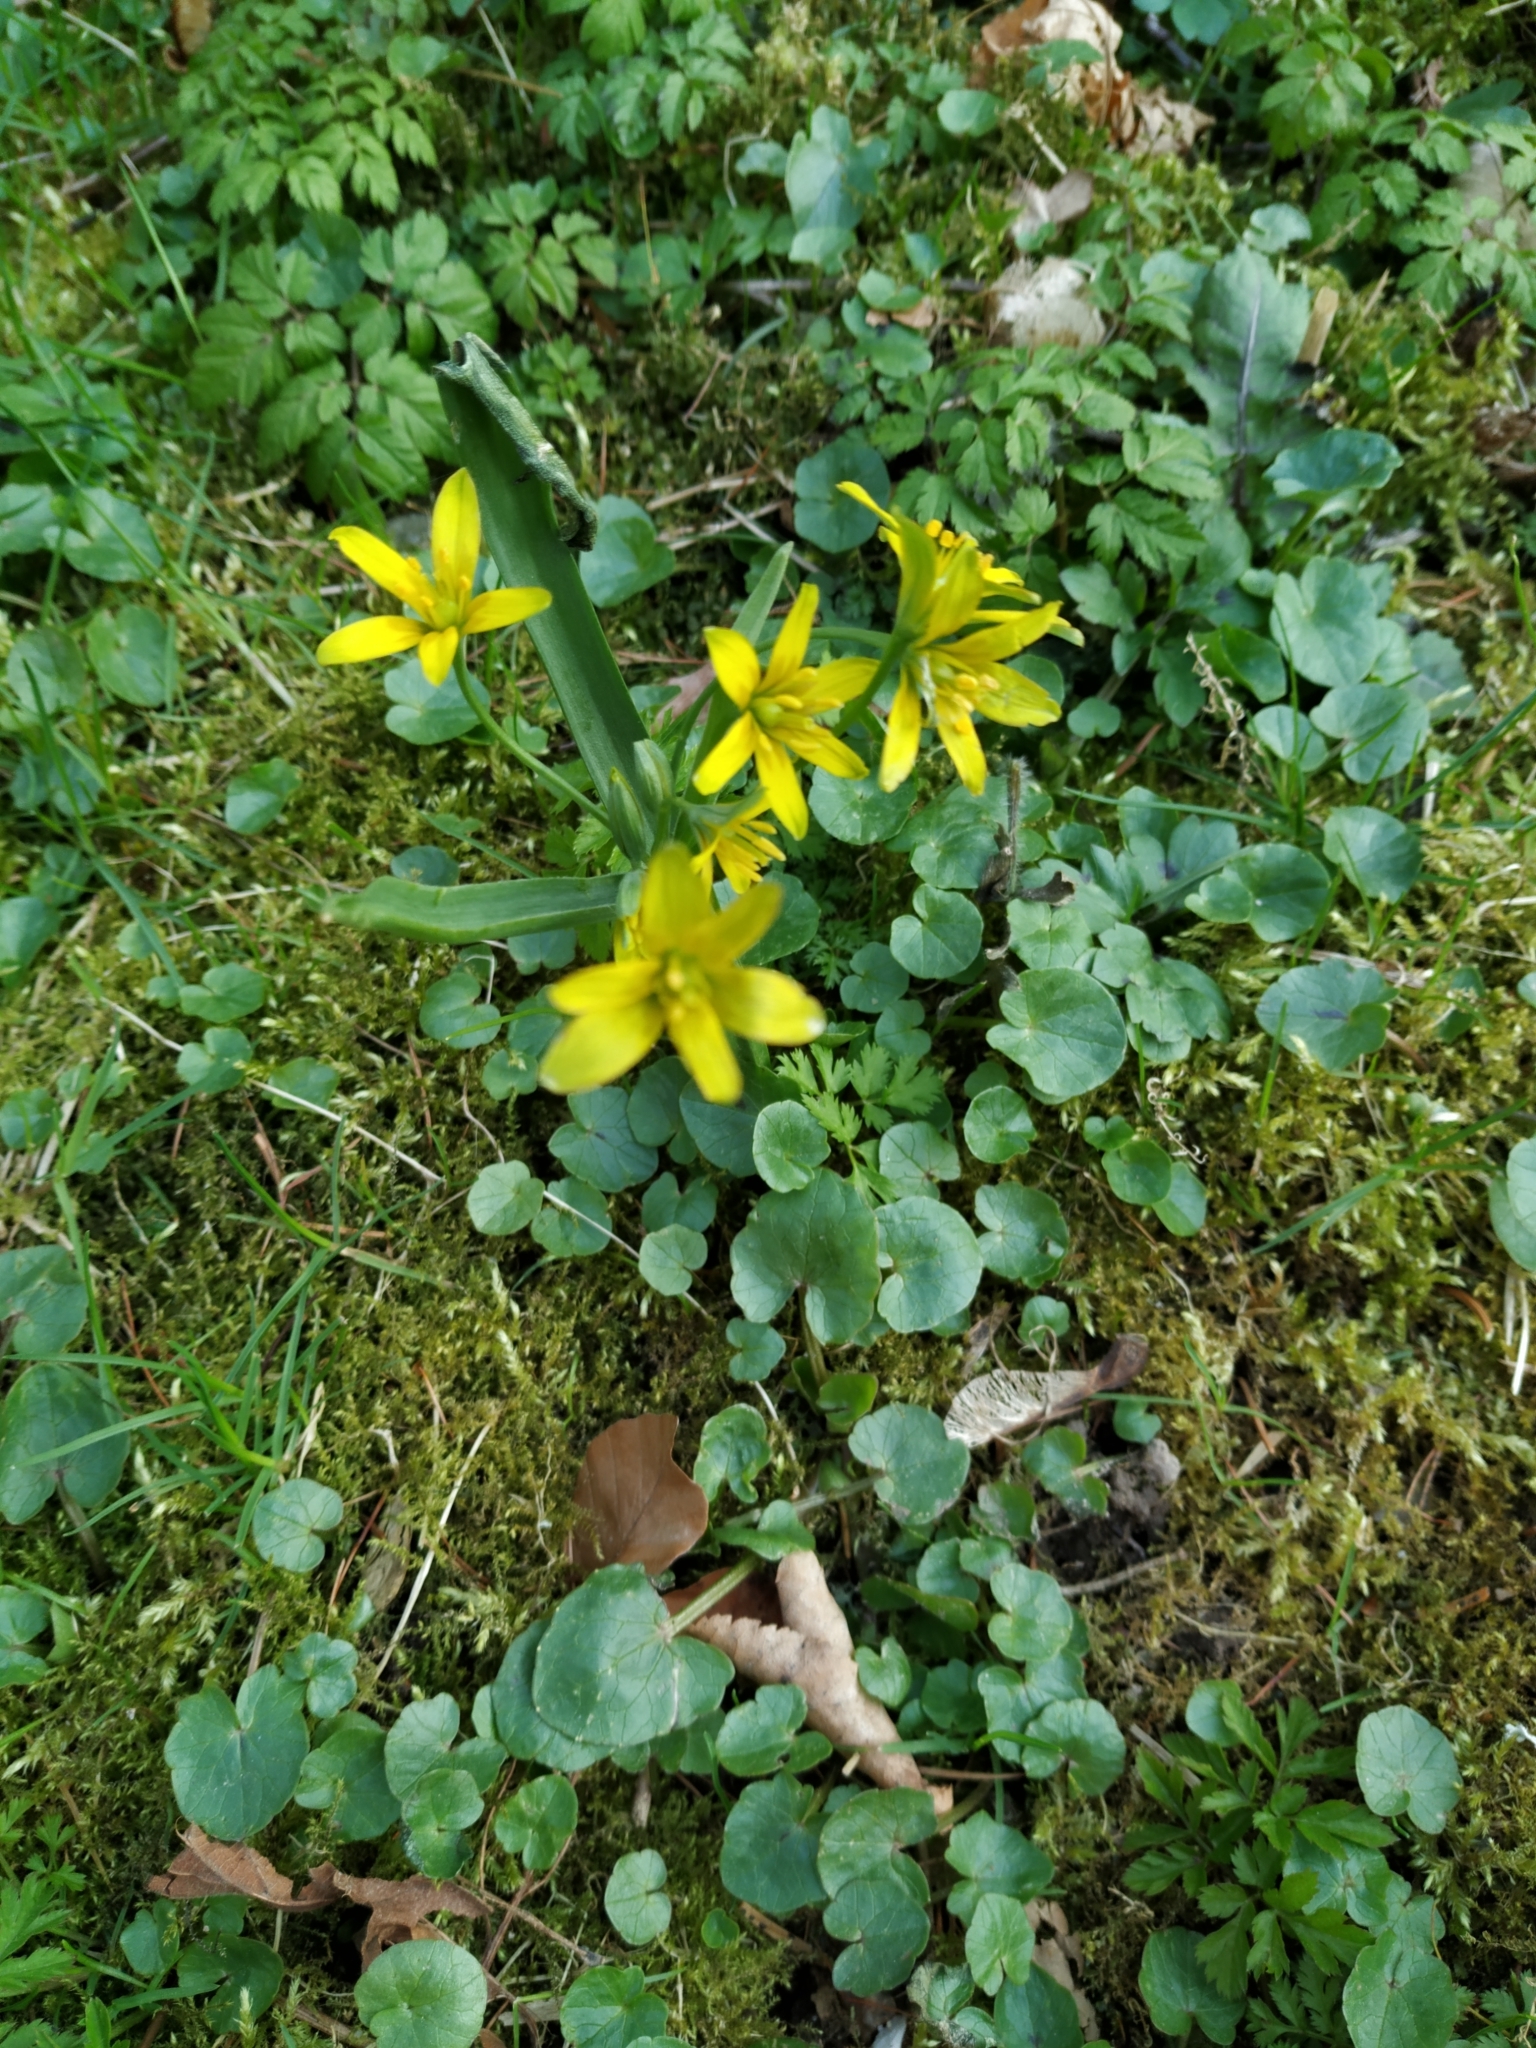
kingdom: Plantae
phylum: Tracheophyta
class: Liliopsida
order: Liliales
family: Liliaceae
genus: Gagea
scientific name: Gagea lutea
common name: Yellow star-of-bethlehem
